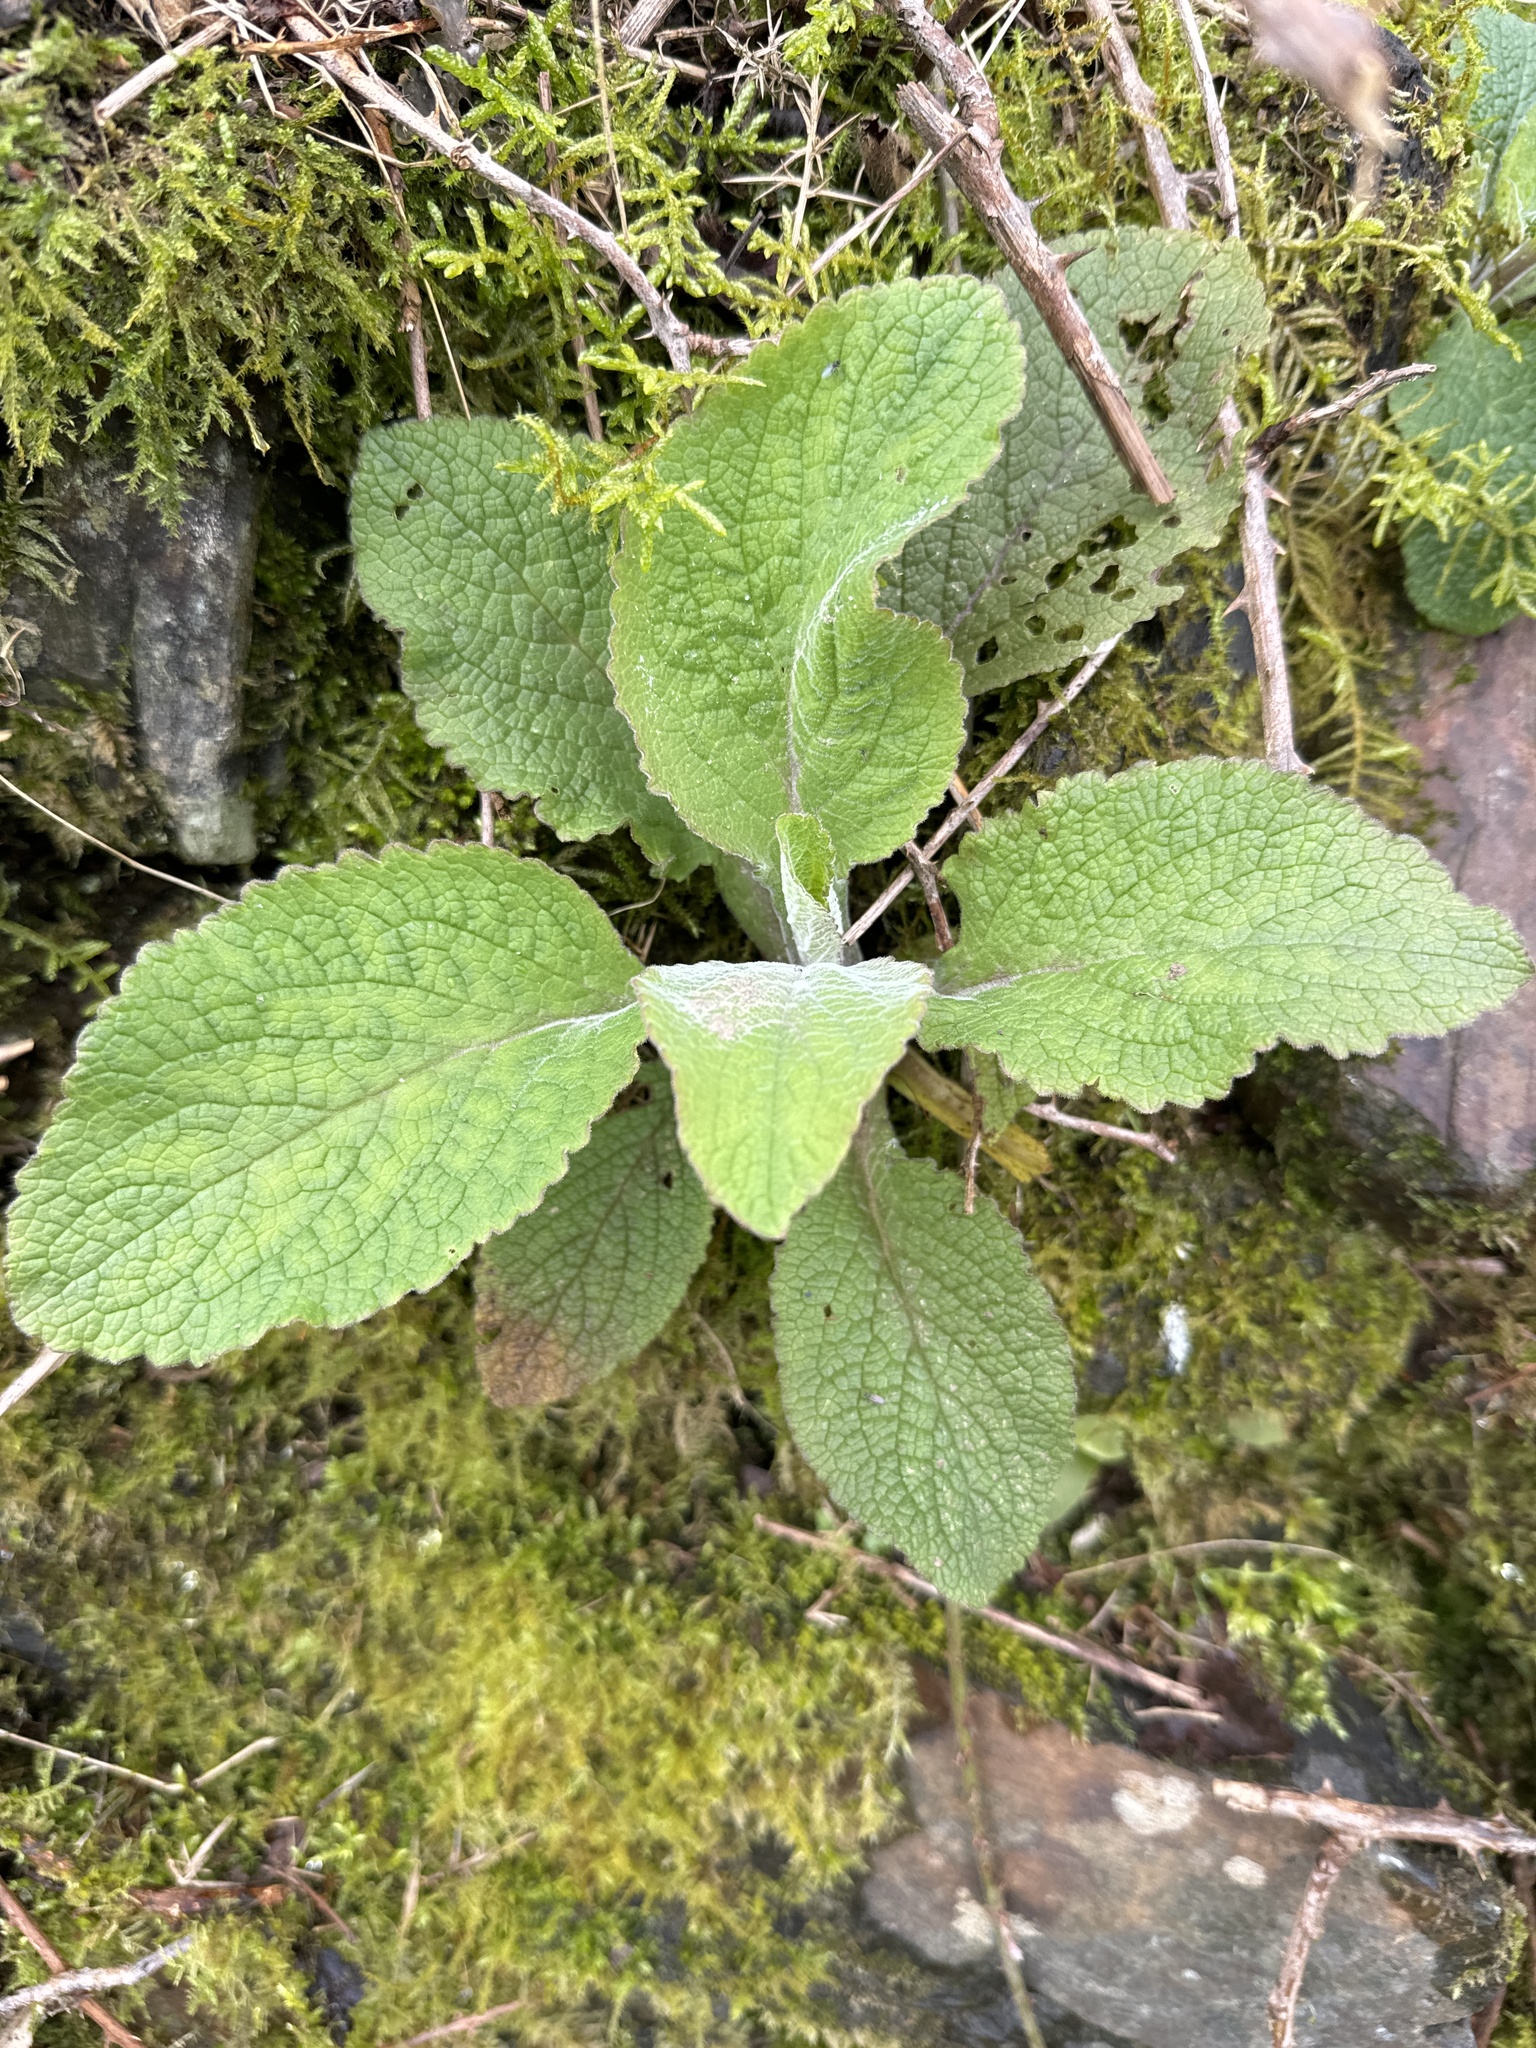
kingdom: Plantae
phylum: Tracheophyta
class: Magnoliopsida
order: Lamiales
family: Plantaginaceae
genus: Digitalis
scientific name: Digitalis purpurea
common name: Foxglove
